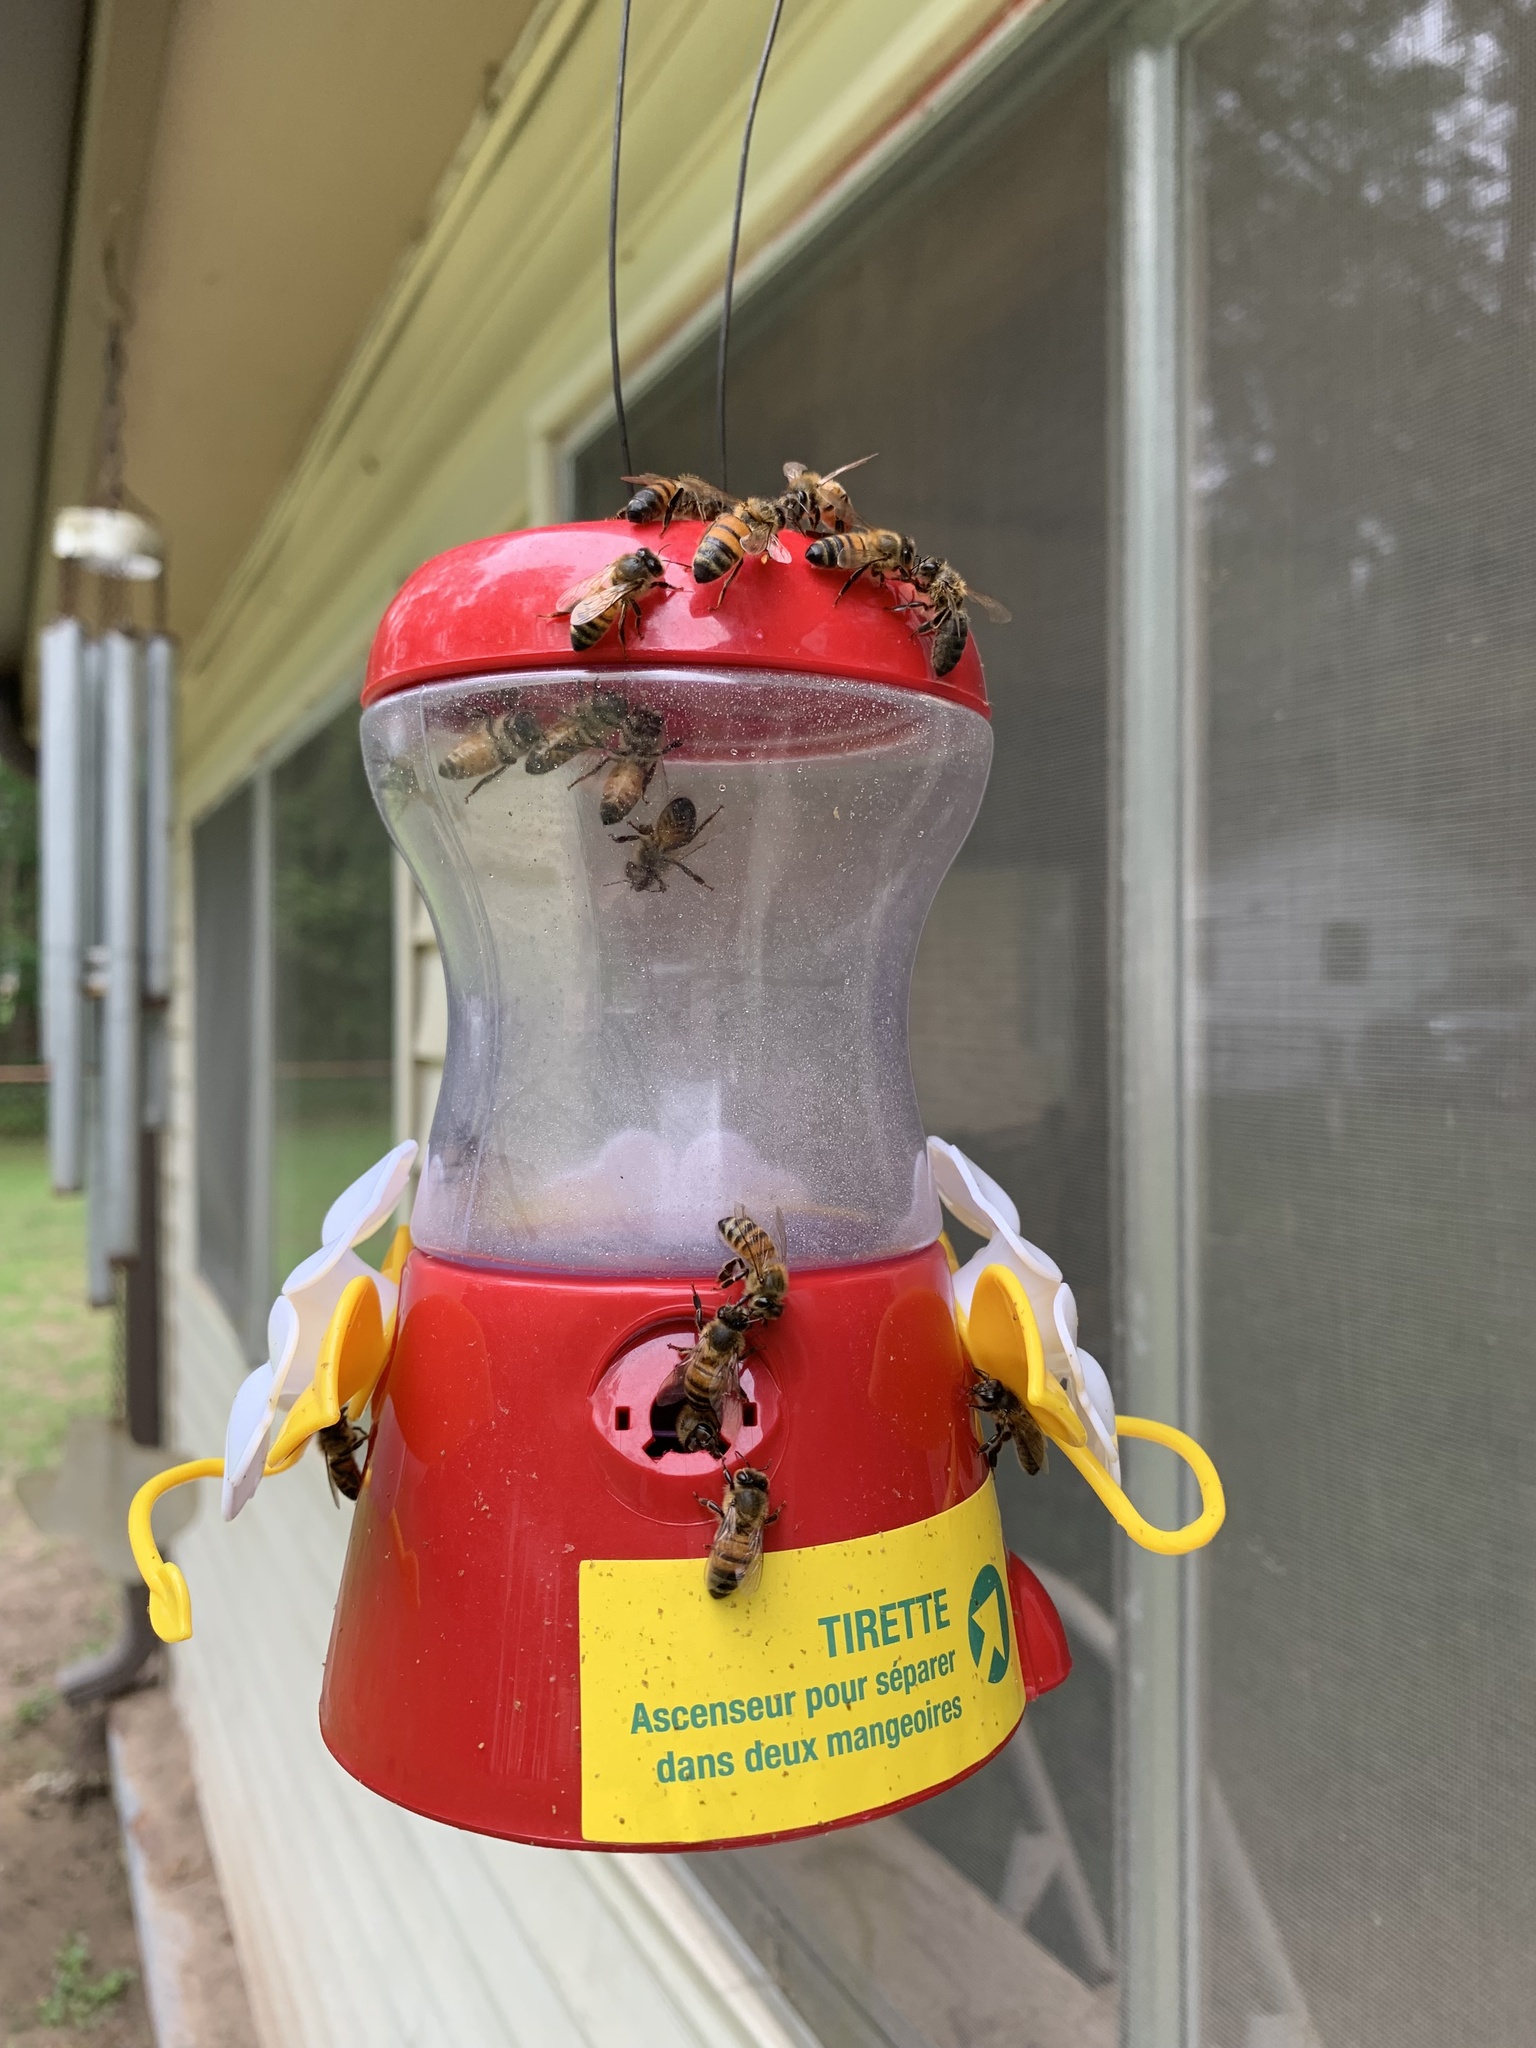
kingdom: Animalia
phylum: Arthropoda
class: Insecta
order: Hymenoptera
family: Apidae
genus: Apis
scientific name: Apis mellifera
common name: Honey bee
